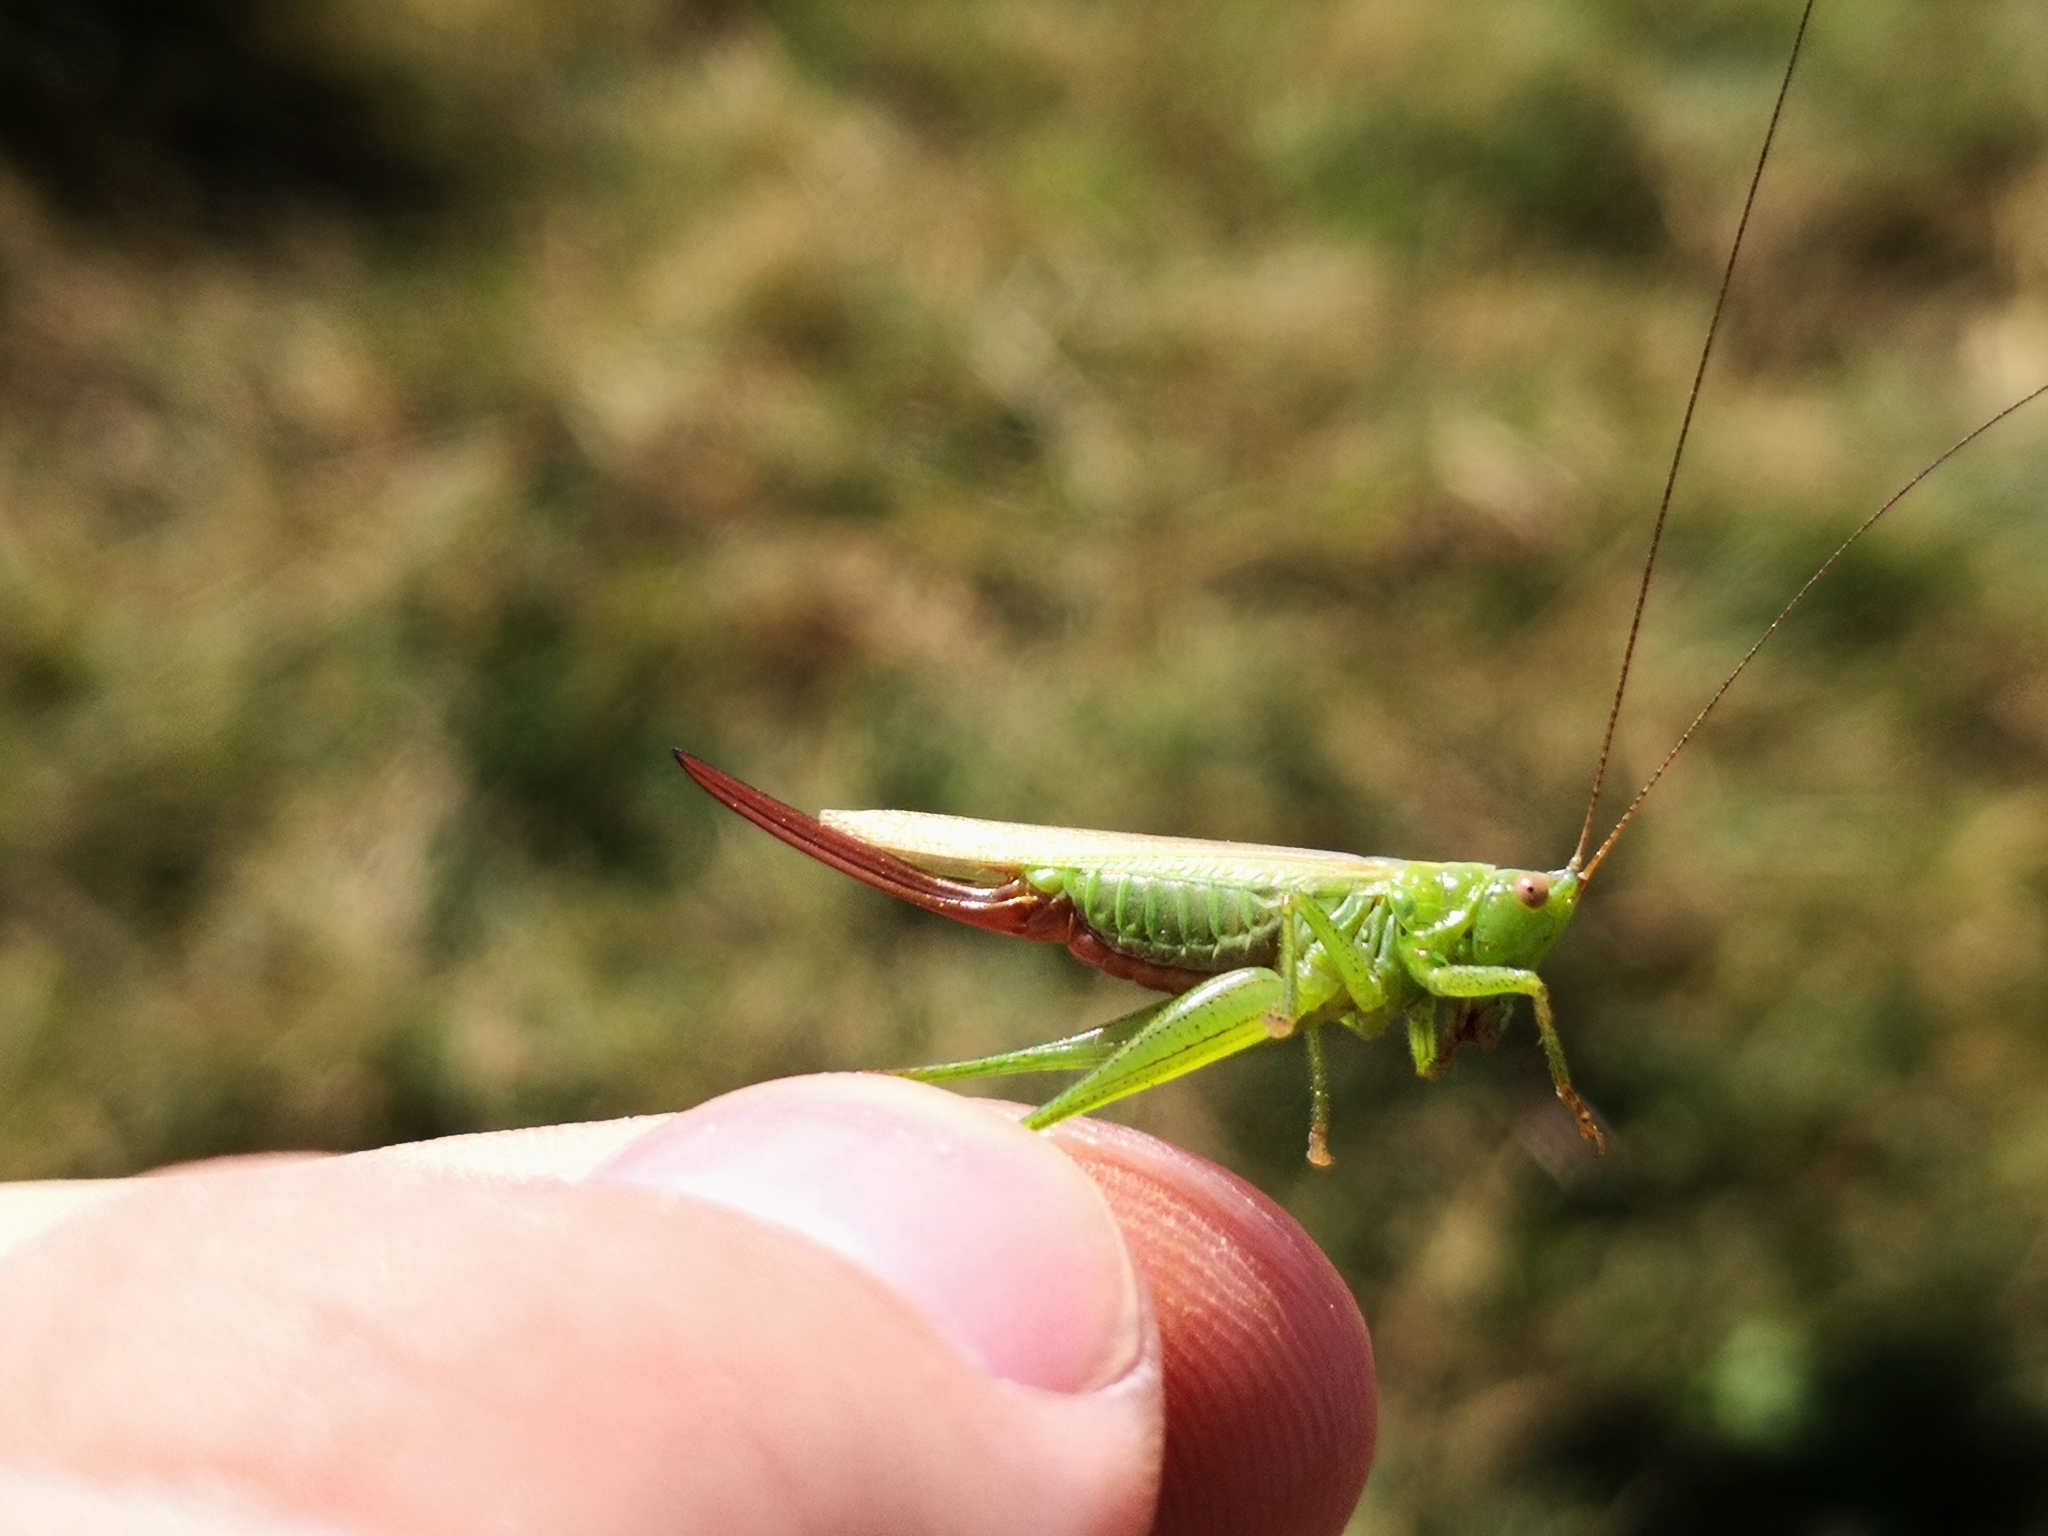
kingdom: Animalia
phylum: Arthropoda
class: Insecta
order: Orthoptera
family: Tettigoniidae
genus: Conocephalus
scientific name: Conocephalus fuscus
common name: Long-winged conehead
